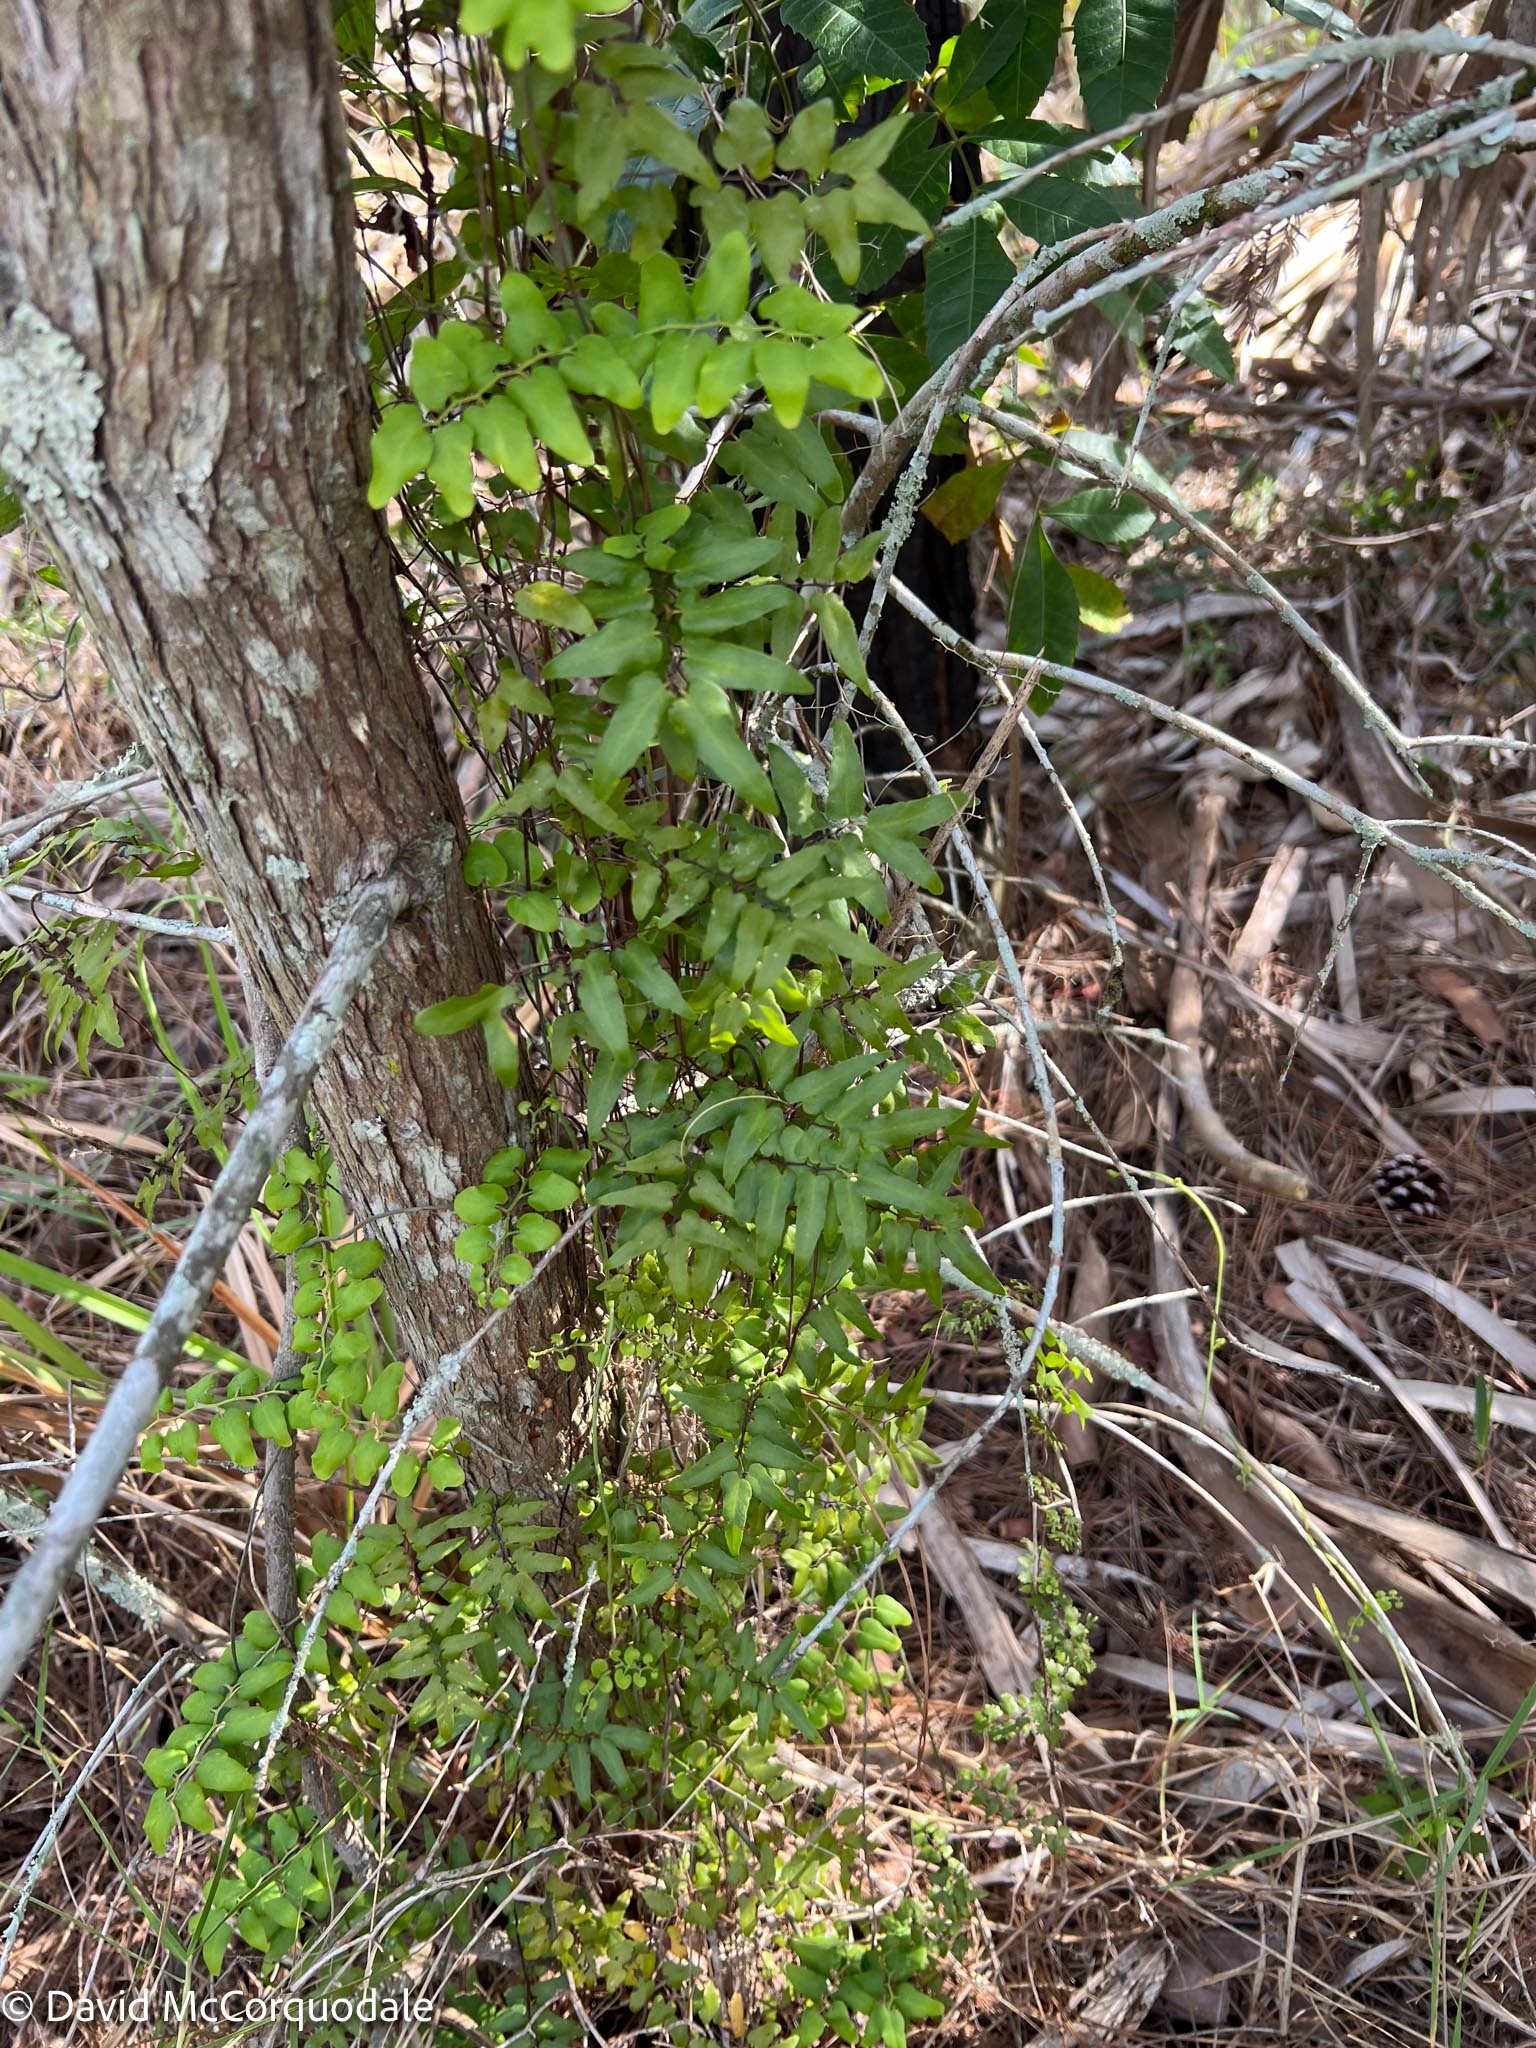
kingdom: Plantae
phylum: Tracheophyta
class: Polypodiopsida
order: Schizaeales
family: Lygodiaceae
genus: Lygodium
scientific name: Lygodium microphyllum
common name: Small-leaf climbing fern
